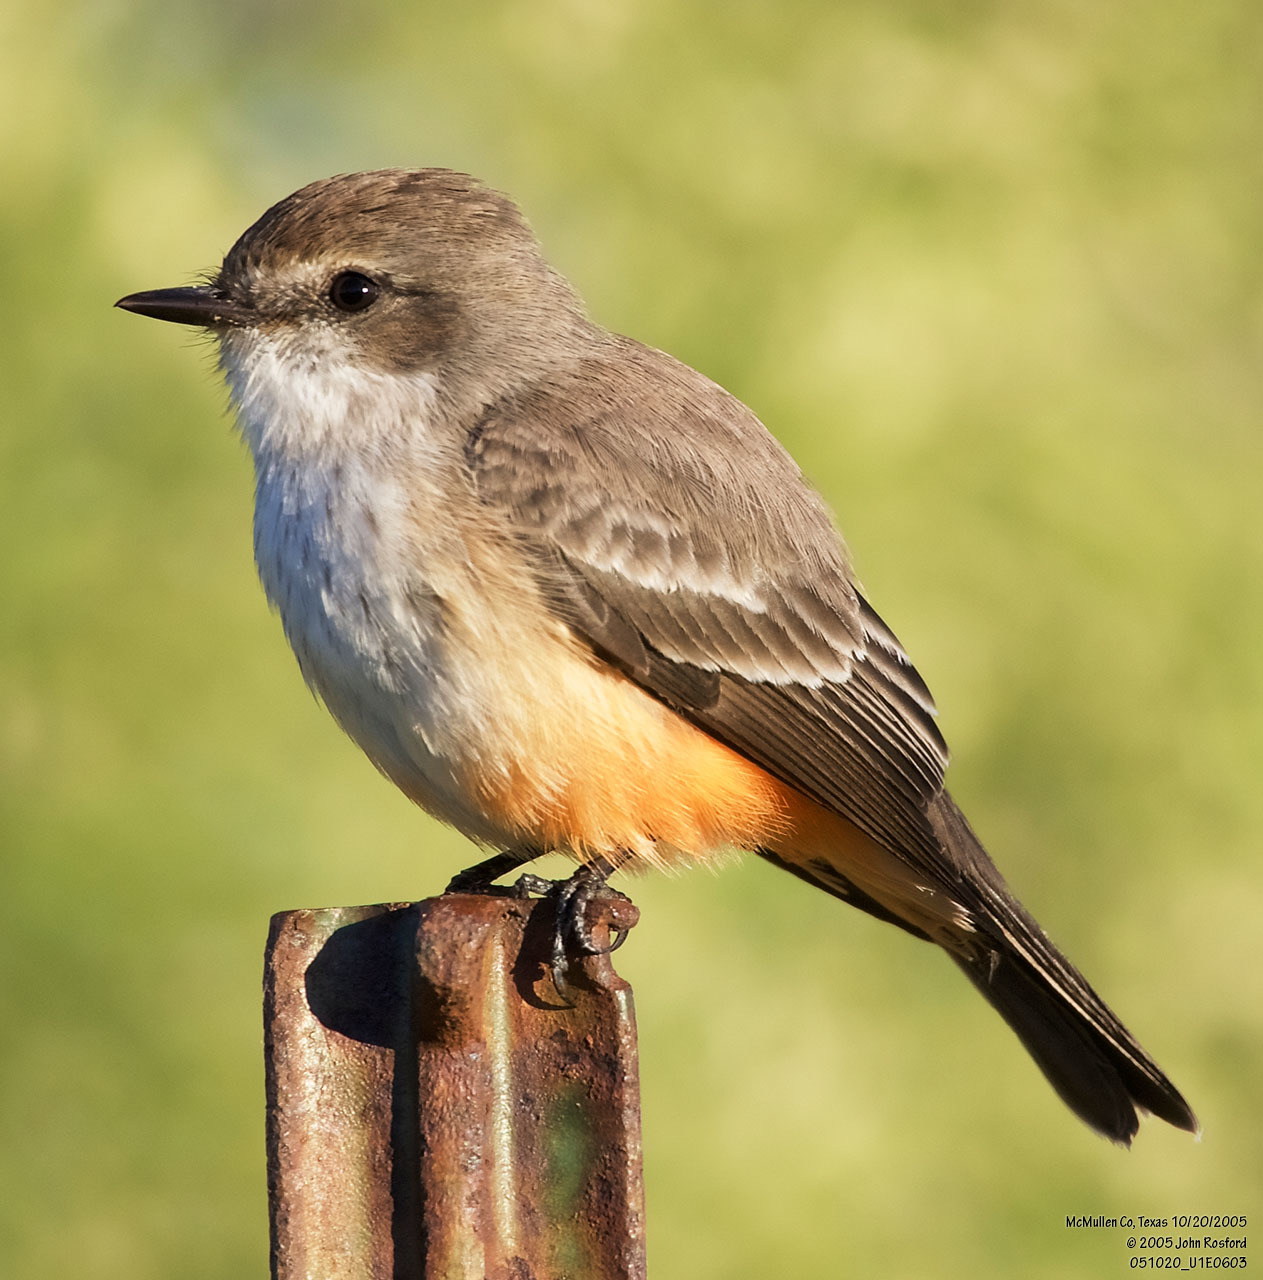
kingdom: Animalia
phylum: Chordata
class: Aves
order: Passeriformes
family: Tyrannidae
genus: Pyrocephalus
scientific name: Pyrocephalus rubinus
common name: Vermilion flycatcher
